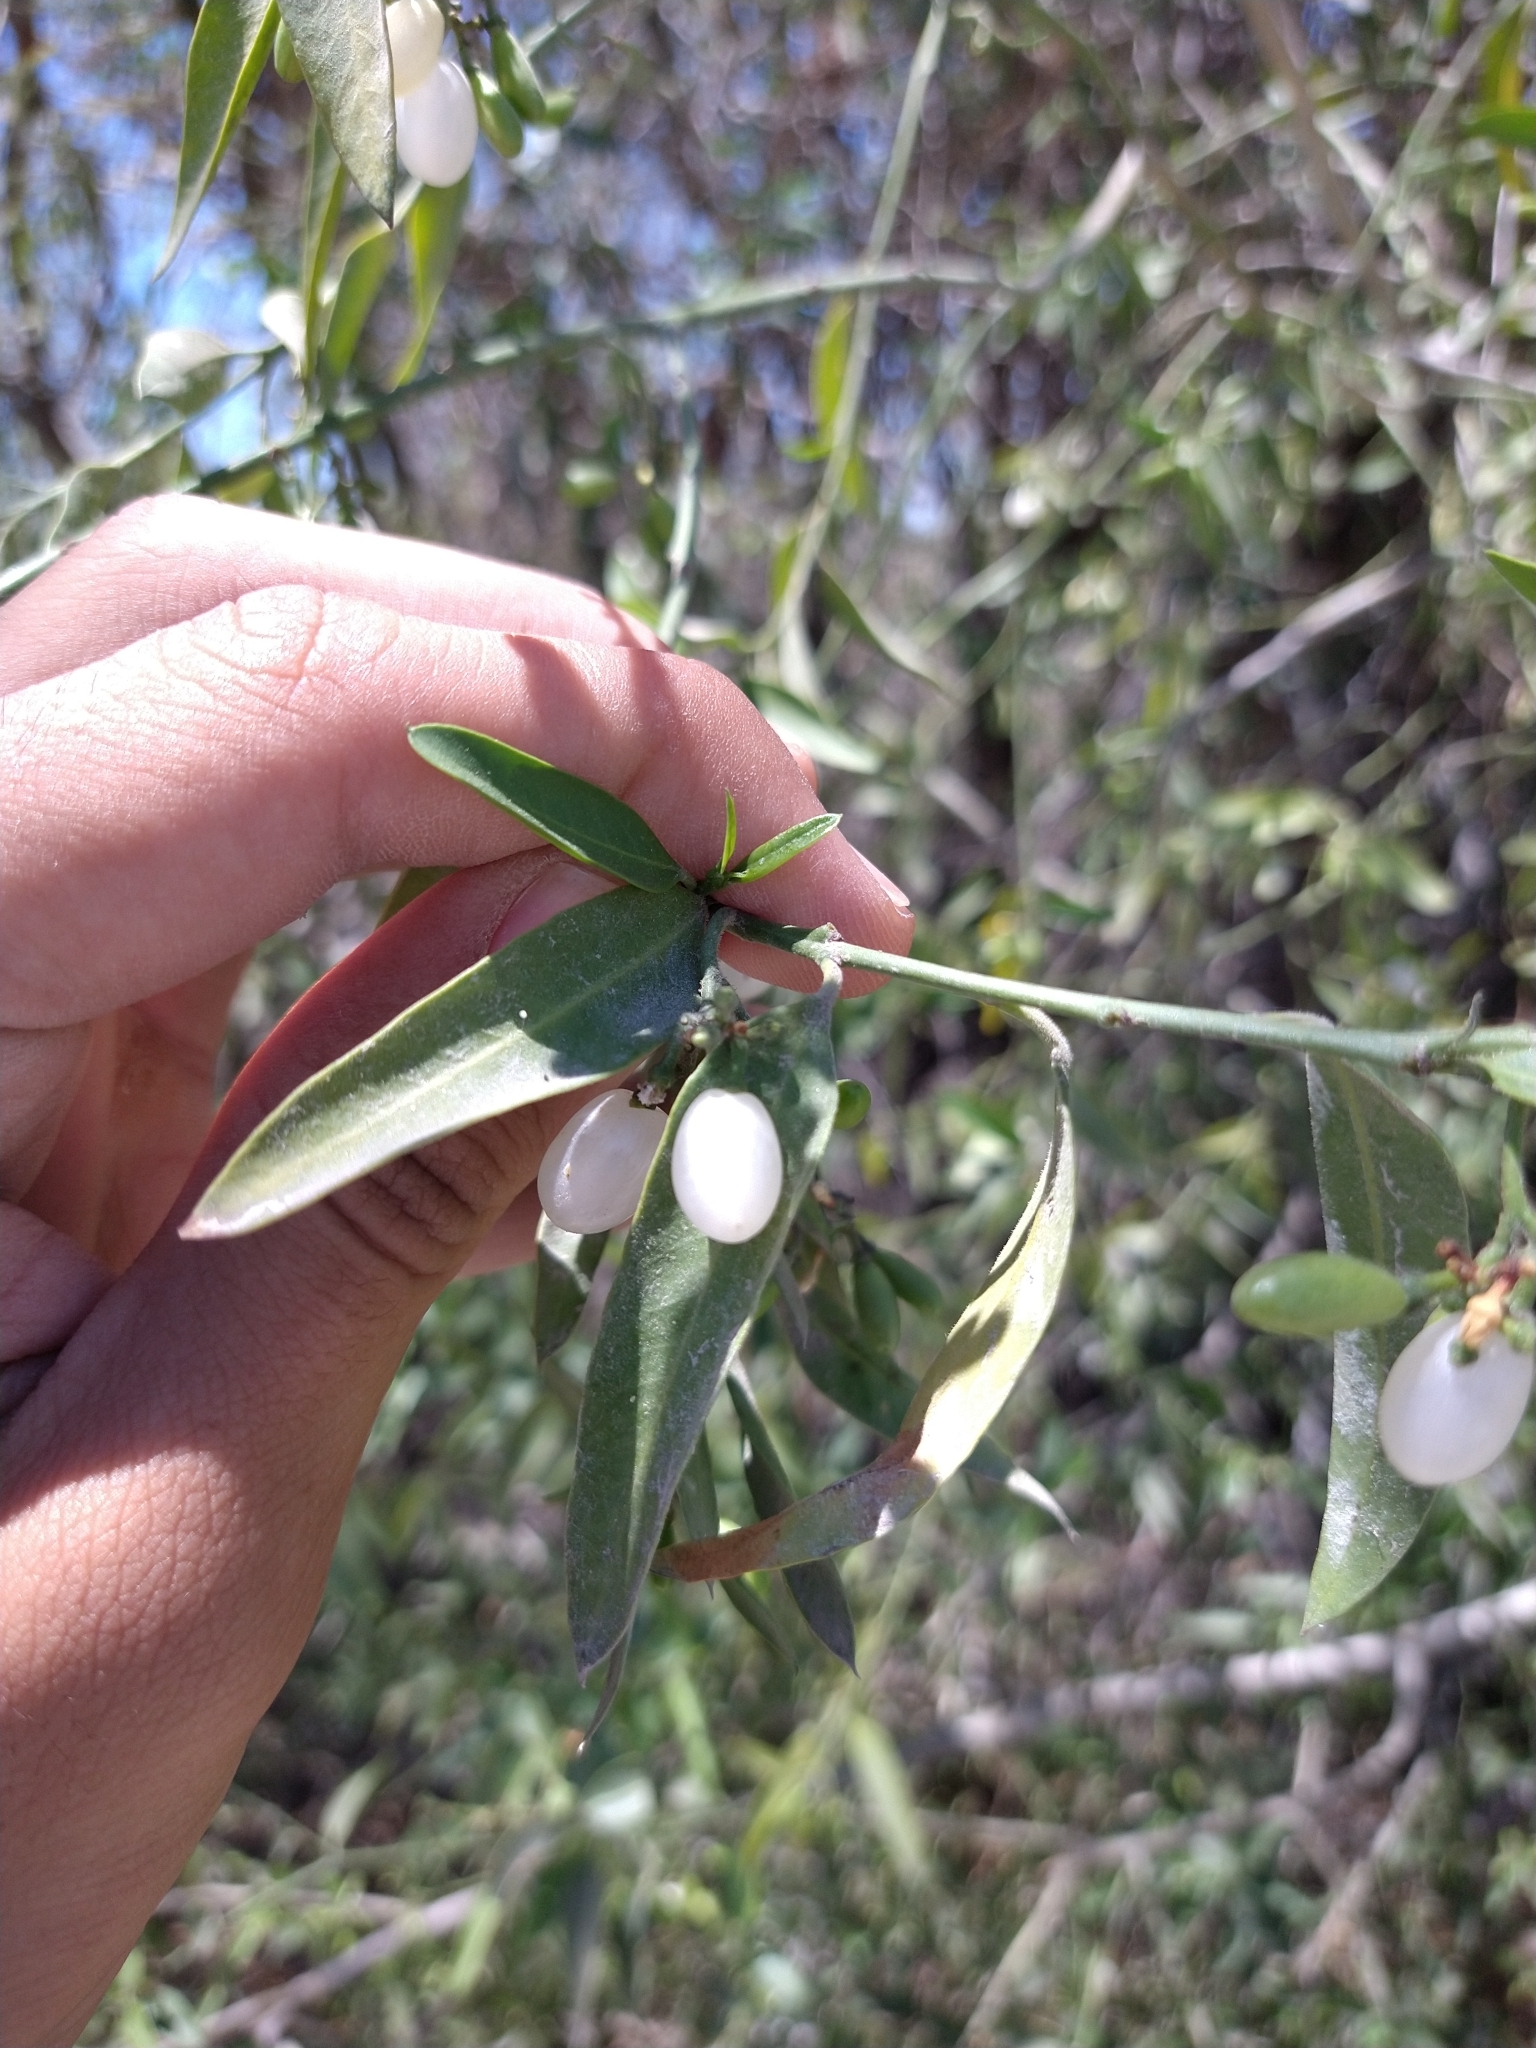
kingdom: Plantae
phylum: Tracheophyta
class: Magnoliopsida
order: Gentianales
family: Apocynaceae
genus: Vallesia
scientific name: Vallesia glabra
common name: Pearlberry
